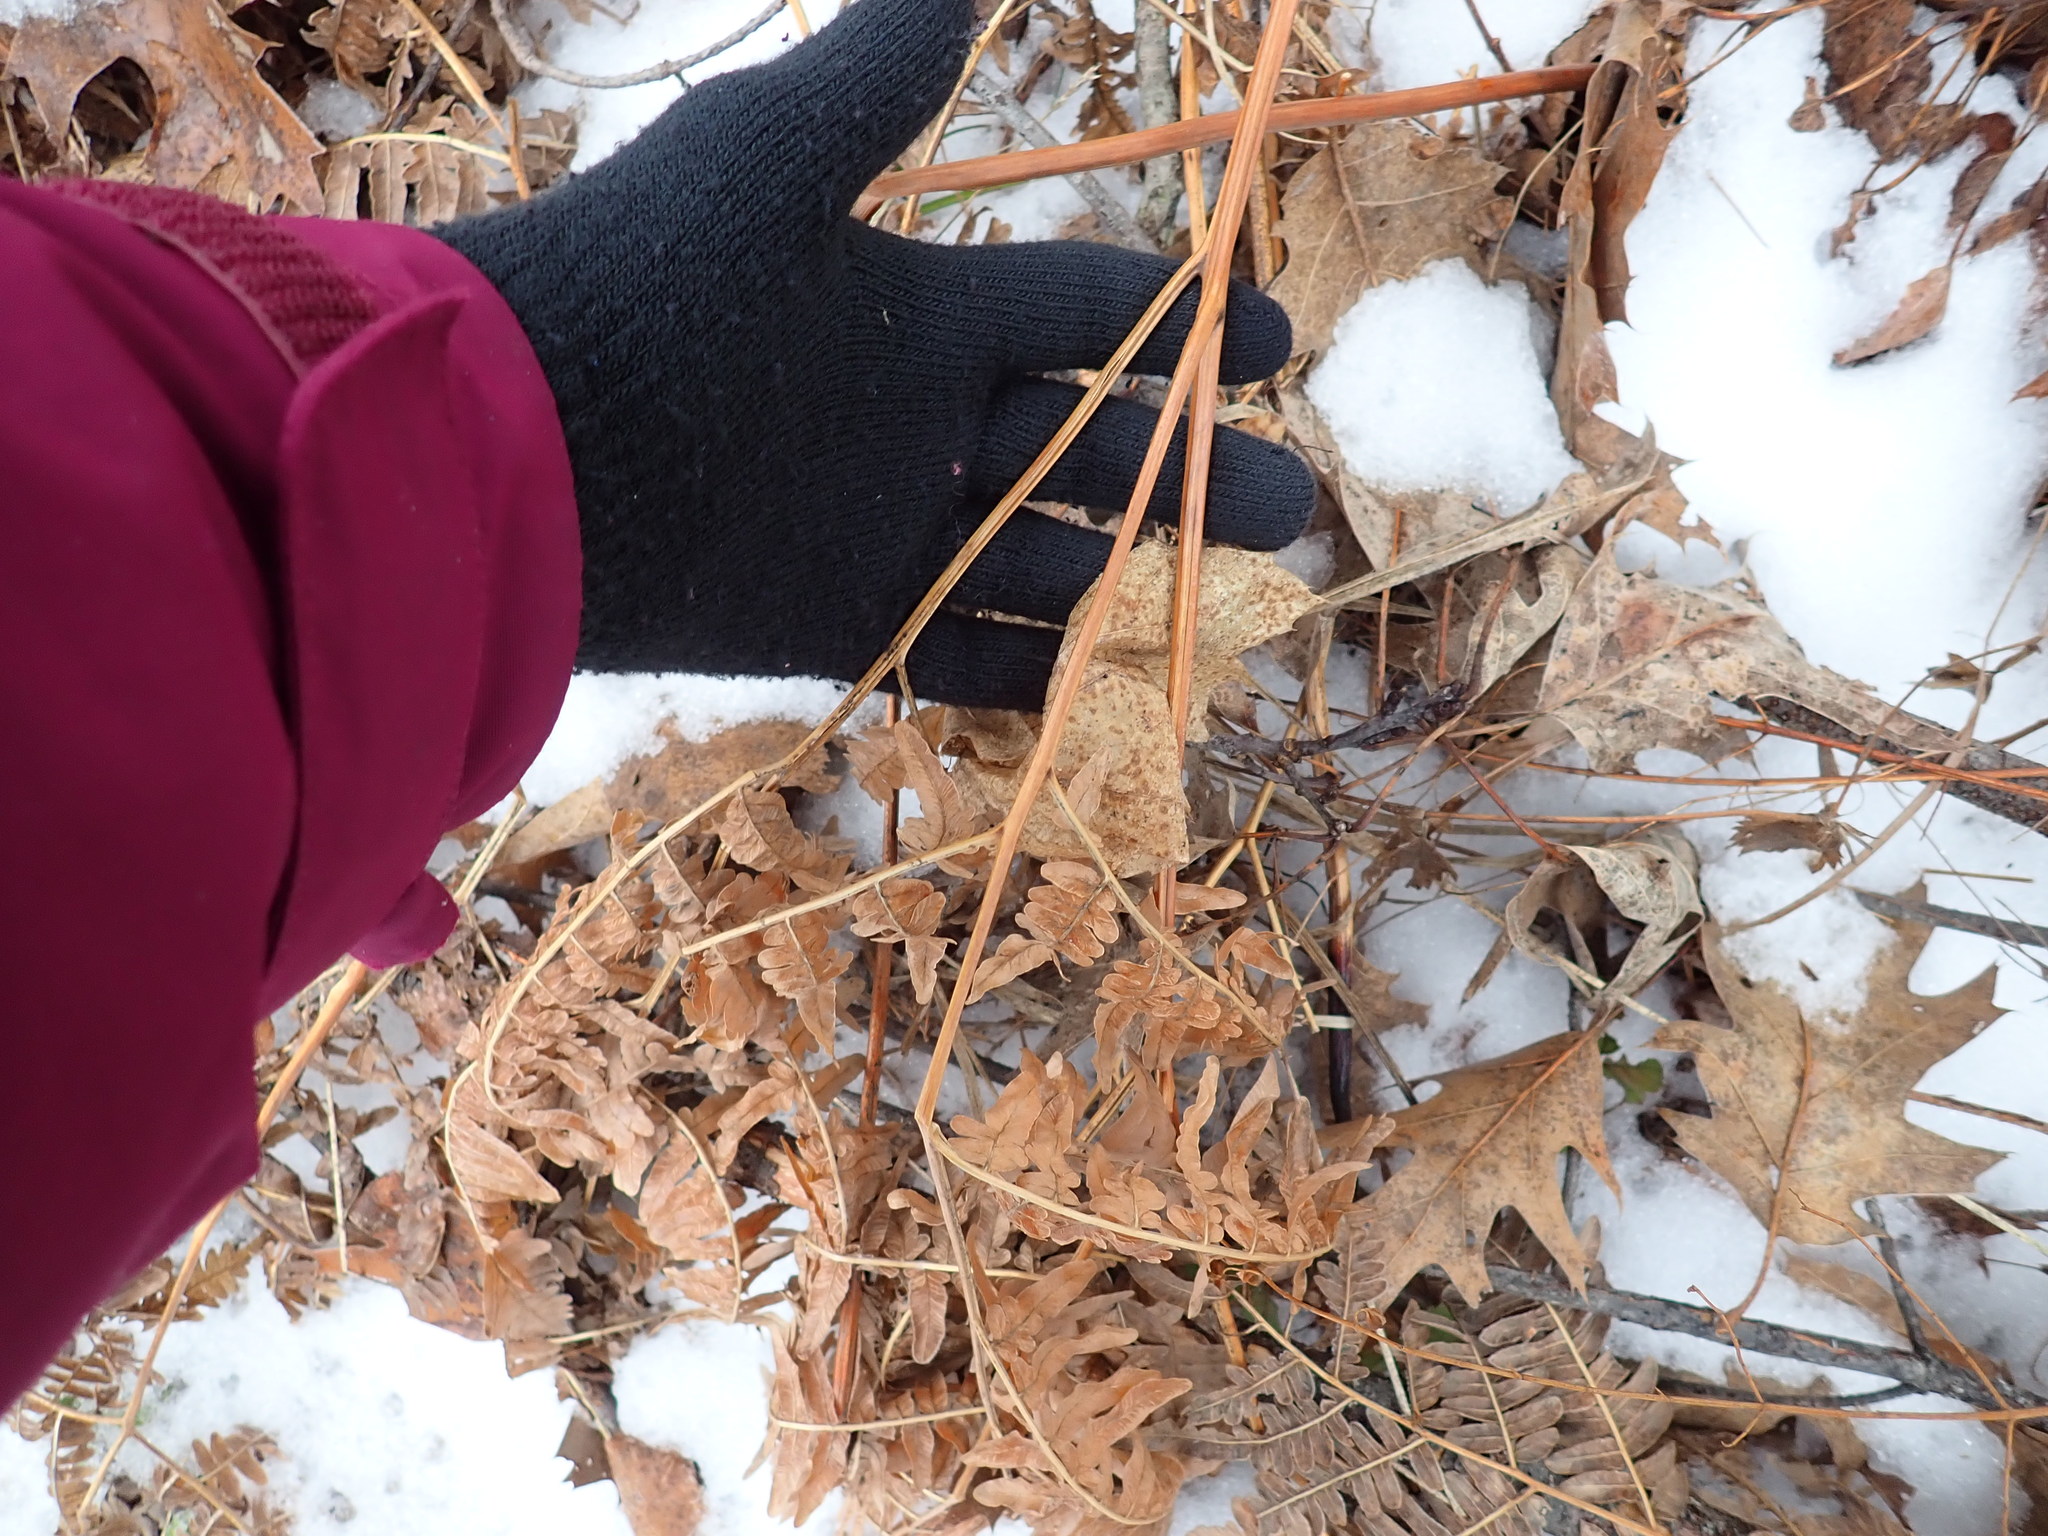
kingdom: Plantae
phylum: Tracheophyta
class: Polypodiopsida
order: Polypodiales
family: Dennstaedtiaceae
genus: Pteridium
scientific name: Pteridium aquilinum
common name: Bracken
